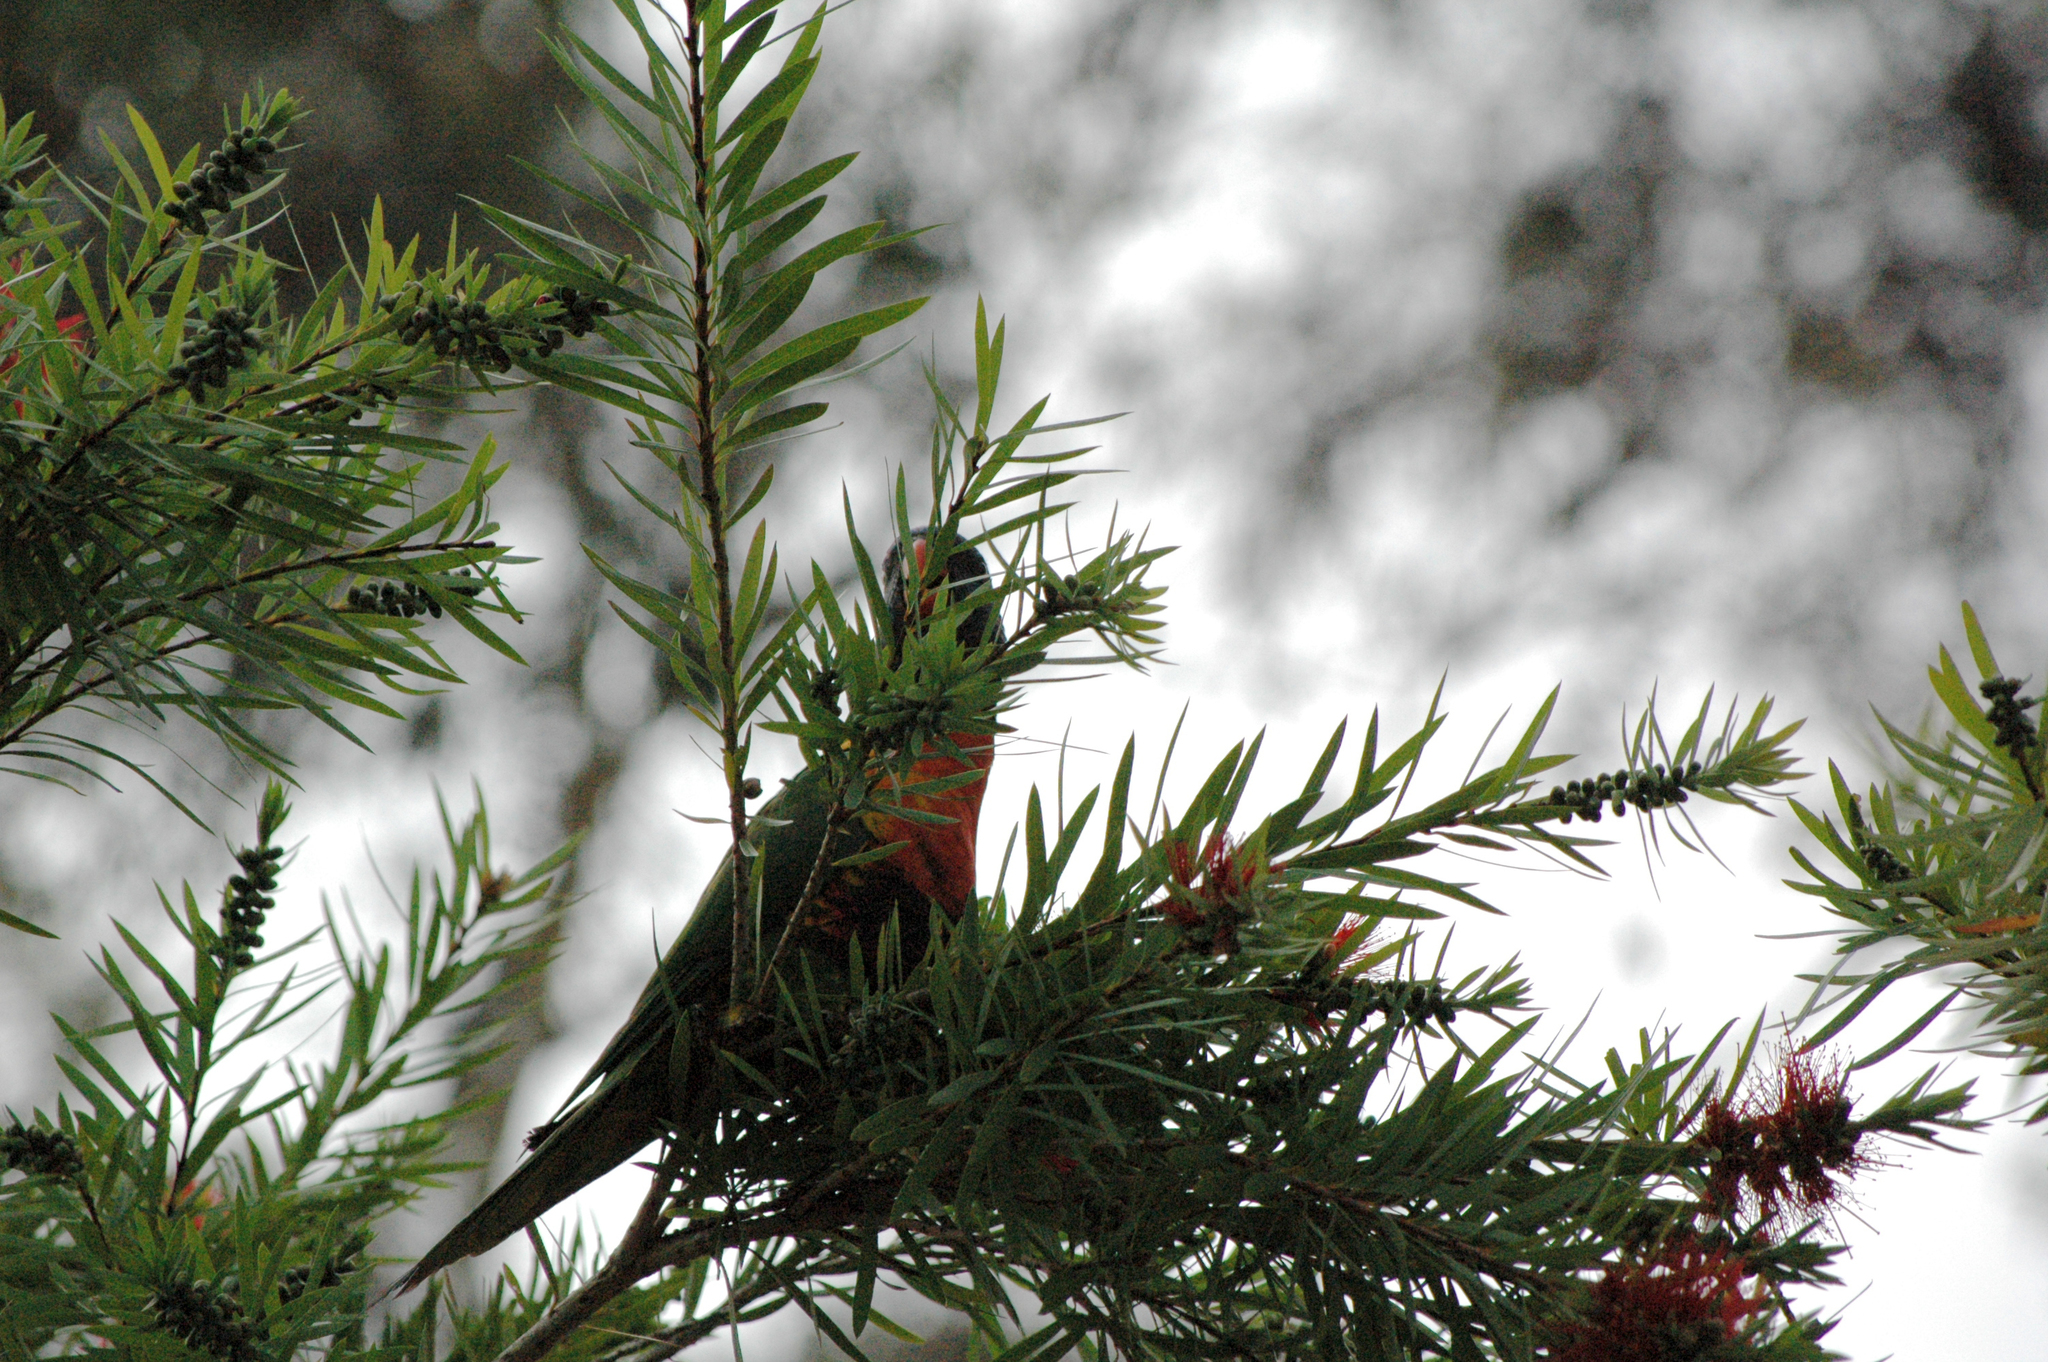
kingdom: Animalia
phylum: Chordata
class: Aves
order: Psittaciformes
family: Psittacidae
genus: Trichoglossus
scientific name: Trichoglossus haematodus
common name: Coconut lorikeet
